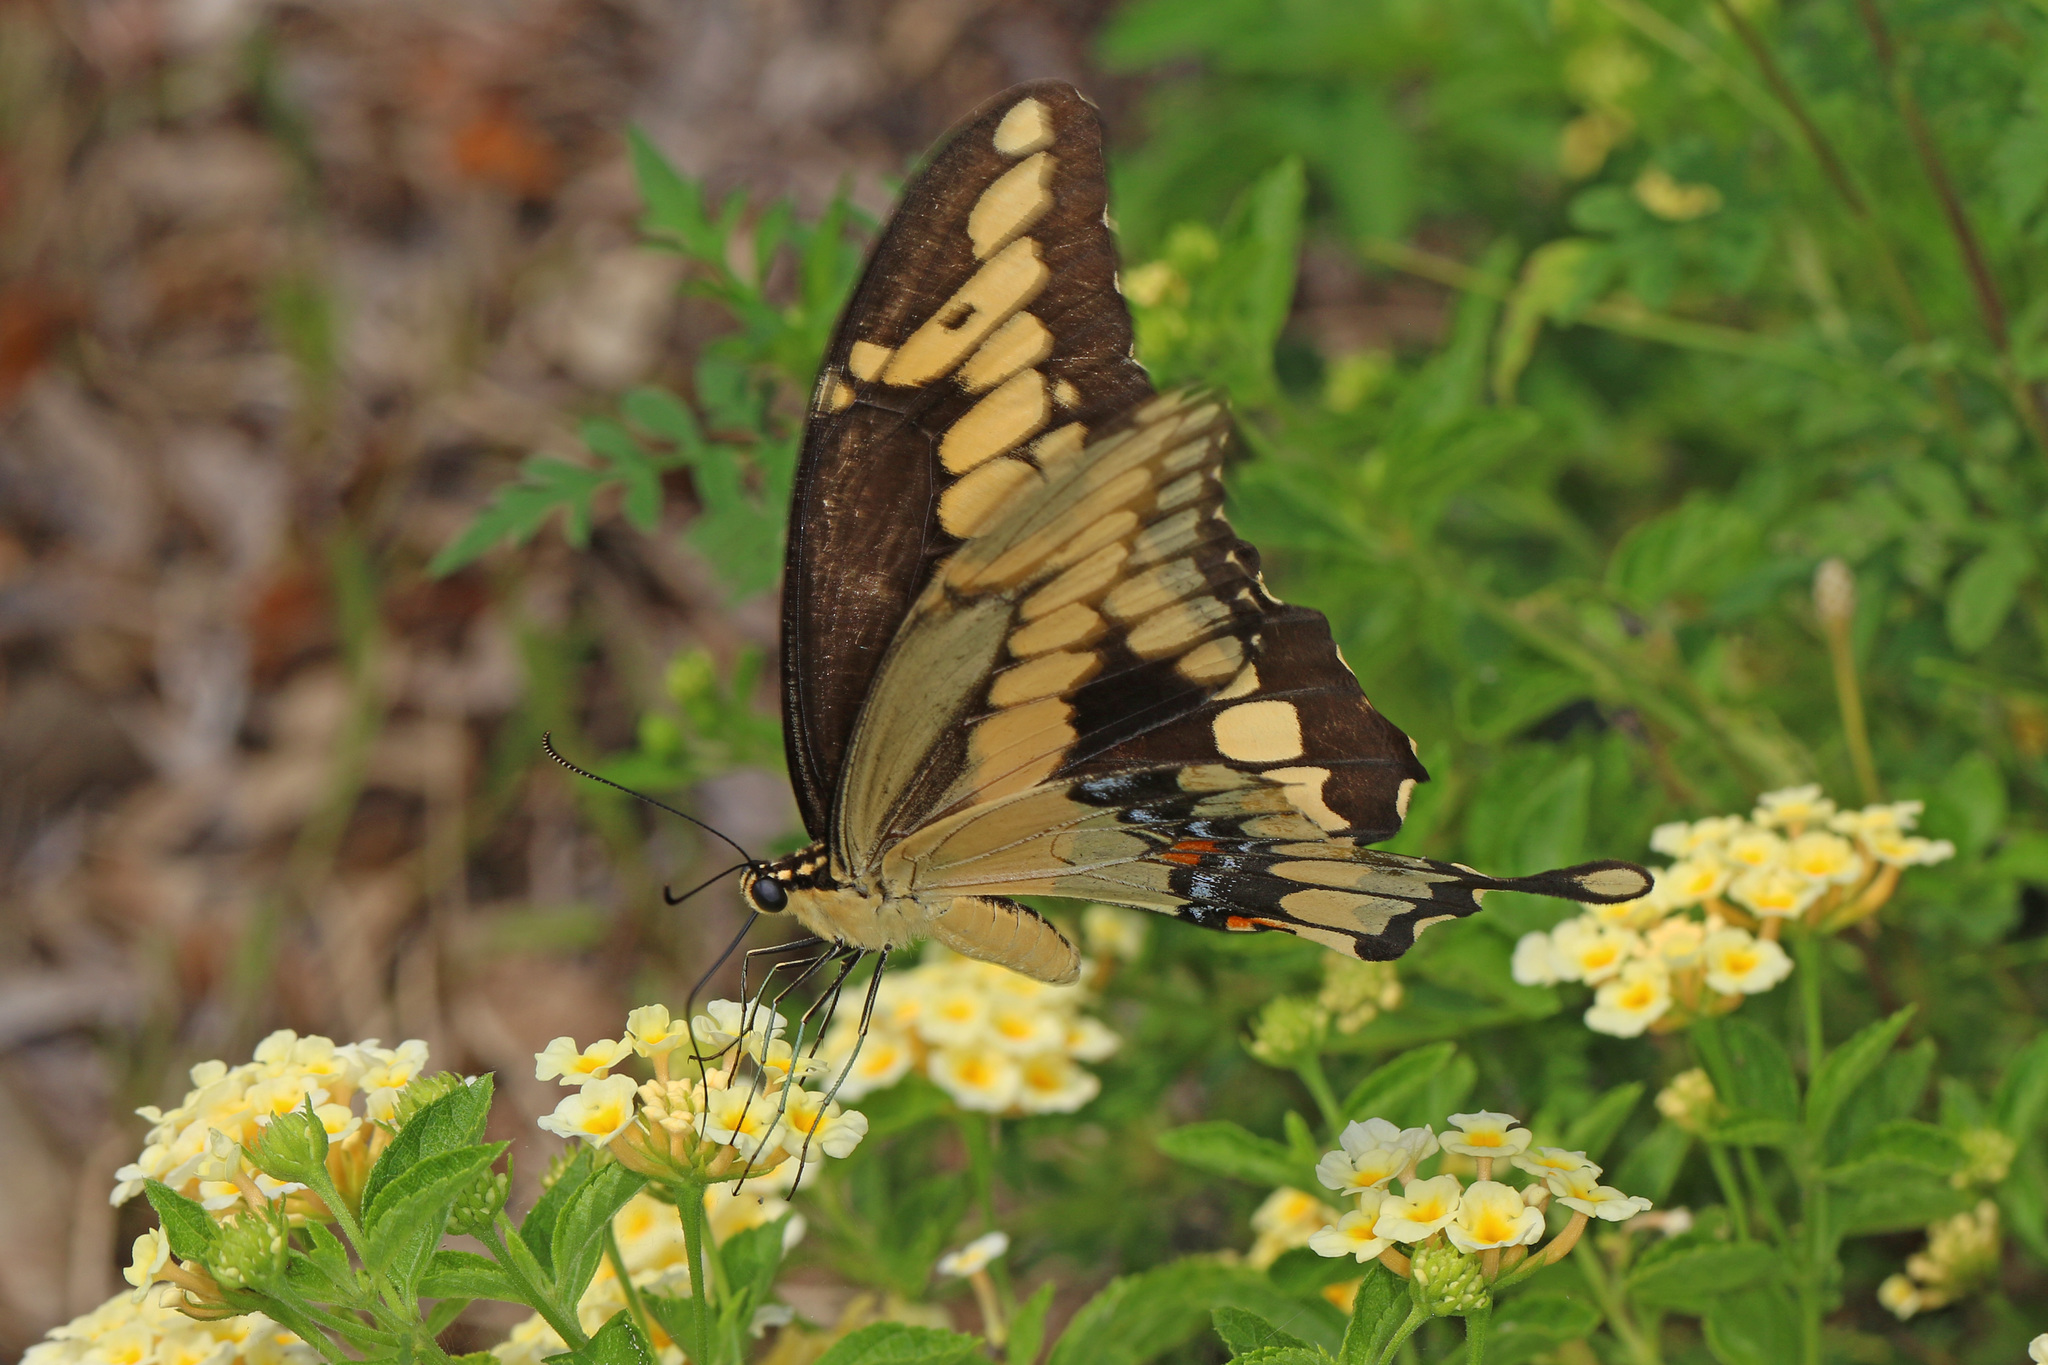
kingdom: Animalia
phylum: Arthropoda
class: Insecta
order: Lepidoptera
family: Papilionidae
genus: Papilio
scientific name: Papilio cresphontes
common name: Giant swallowtail
